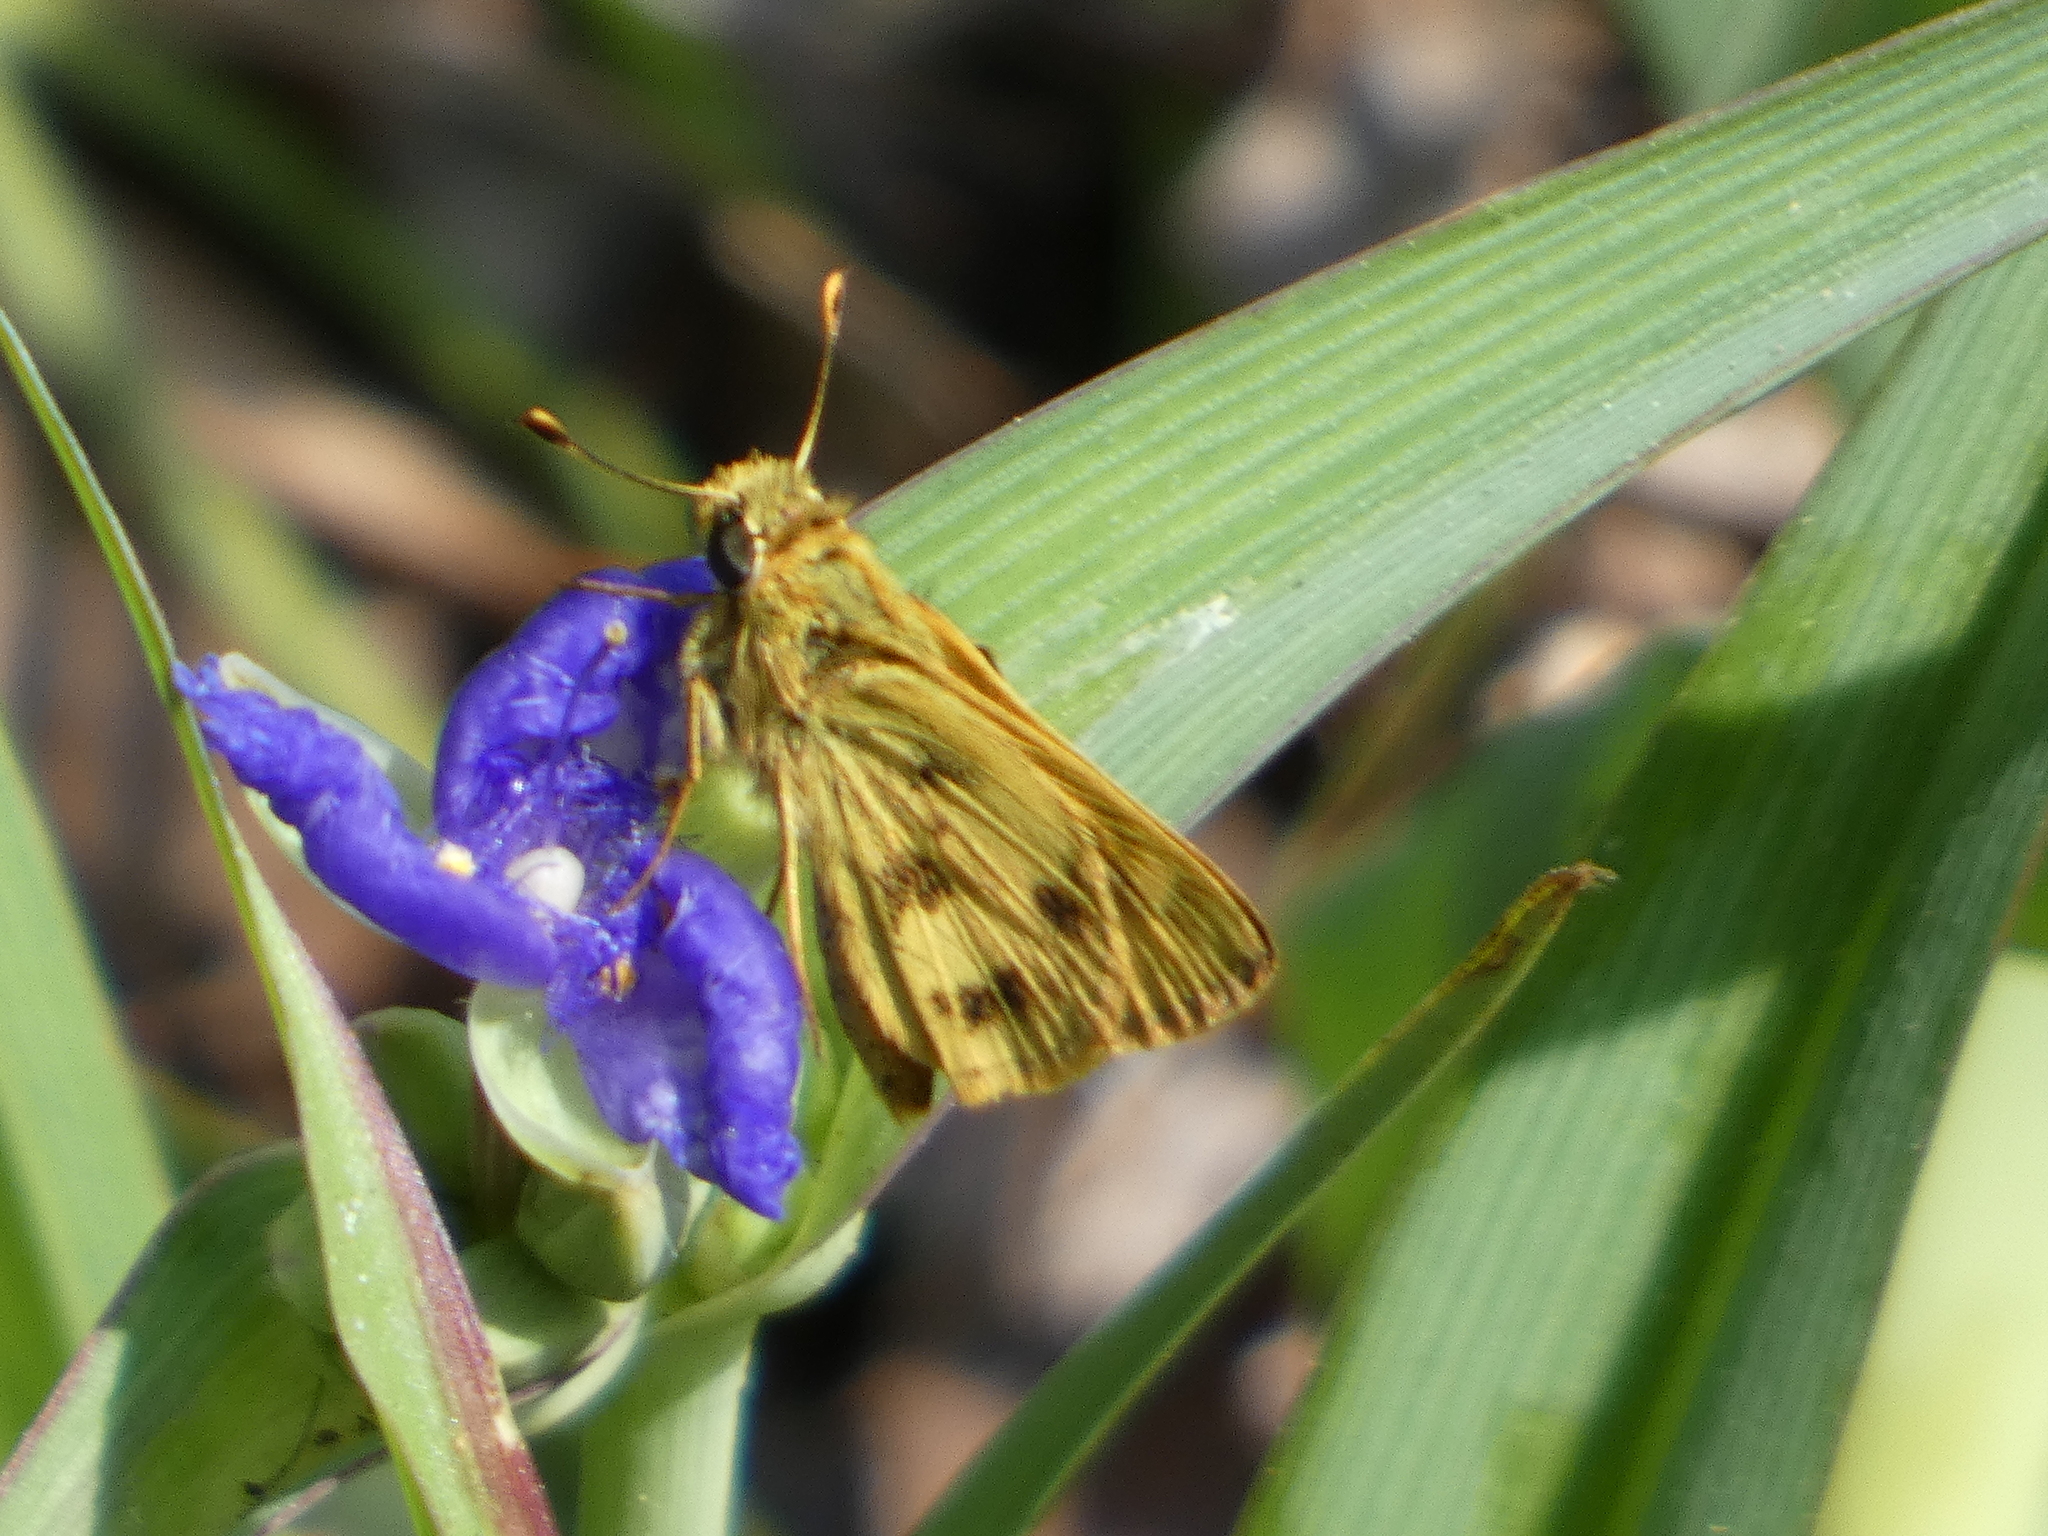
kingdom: Animalia
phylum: Arthropoda
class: Insecta
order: Lepidoptera
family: Hesperiidae
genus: Polites
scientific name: Polites vibex
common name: Whirlabout
